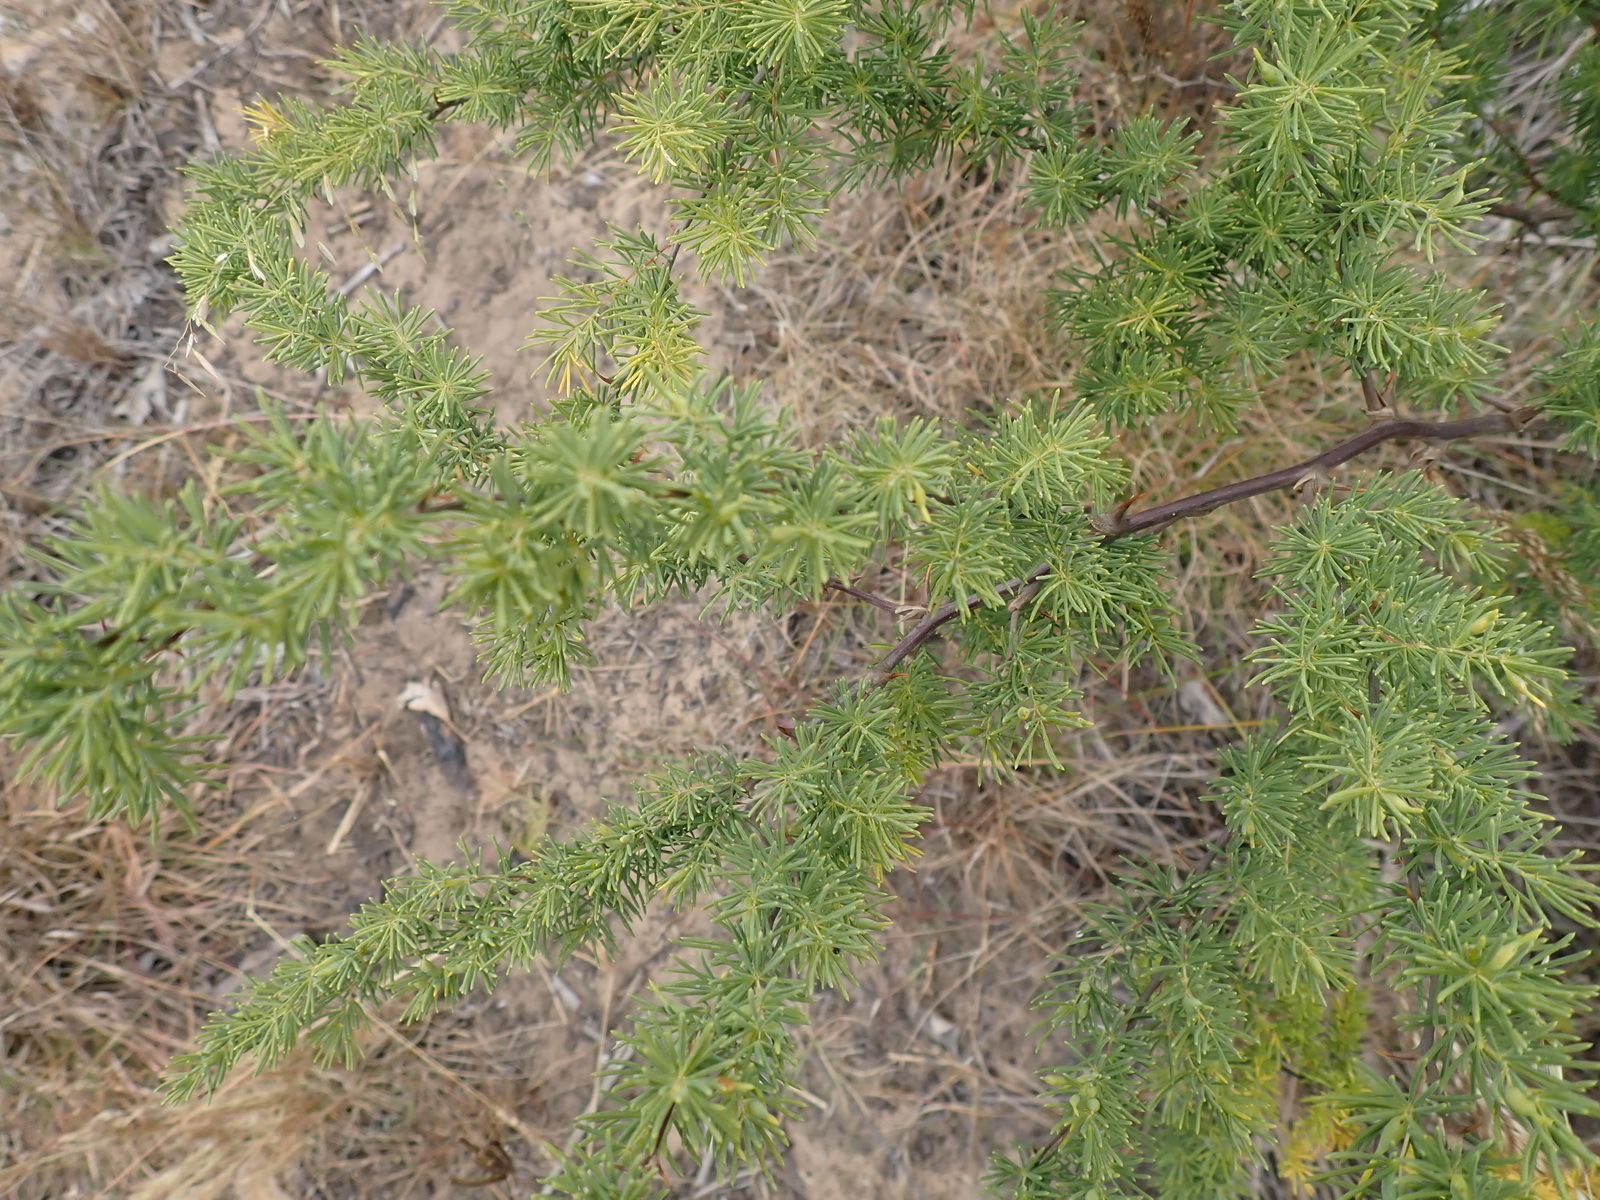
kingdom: Plantae
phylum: Tracheophyta
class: Liliopsida
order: Asparagales
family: Asparagaceae
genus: Asparagus
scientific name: Asparagus rubicundus
